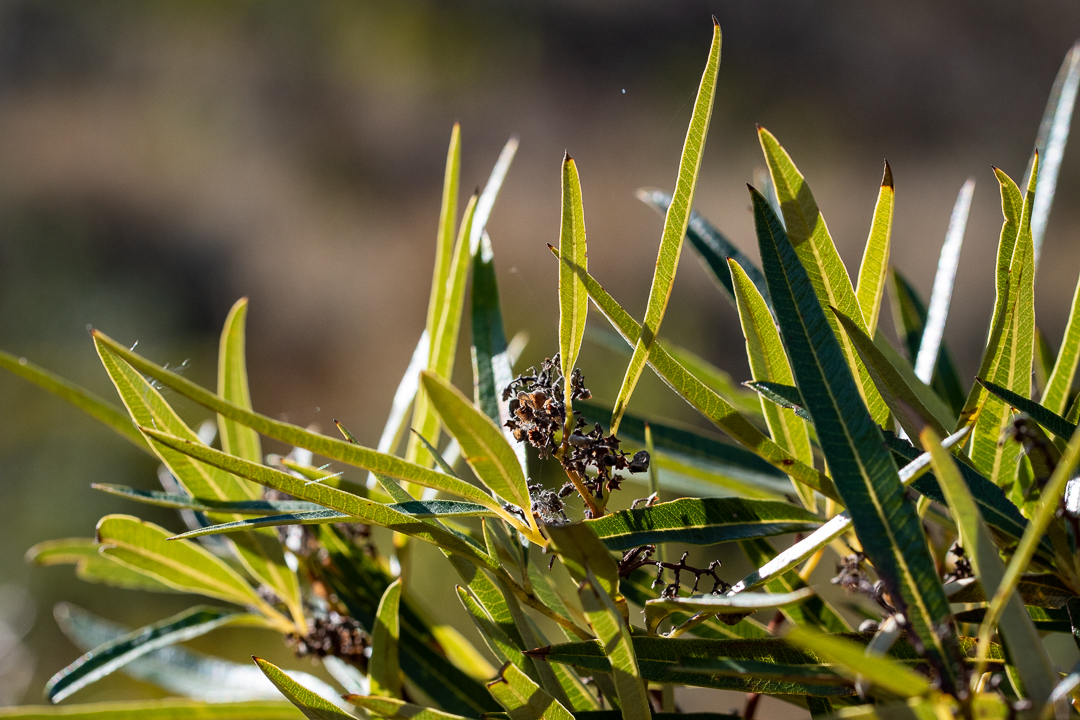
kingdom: Plantae
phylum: Tracheophyta
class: Magnoliopsida
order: Sapindales
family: Anacardiaceae
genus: Searsia
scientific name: Searsia angustifolia
